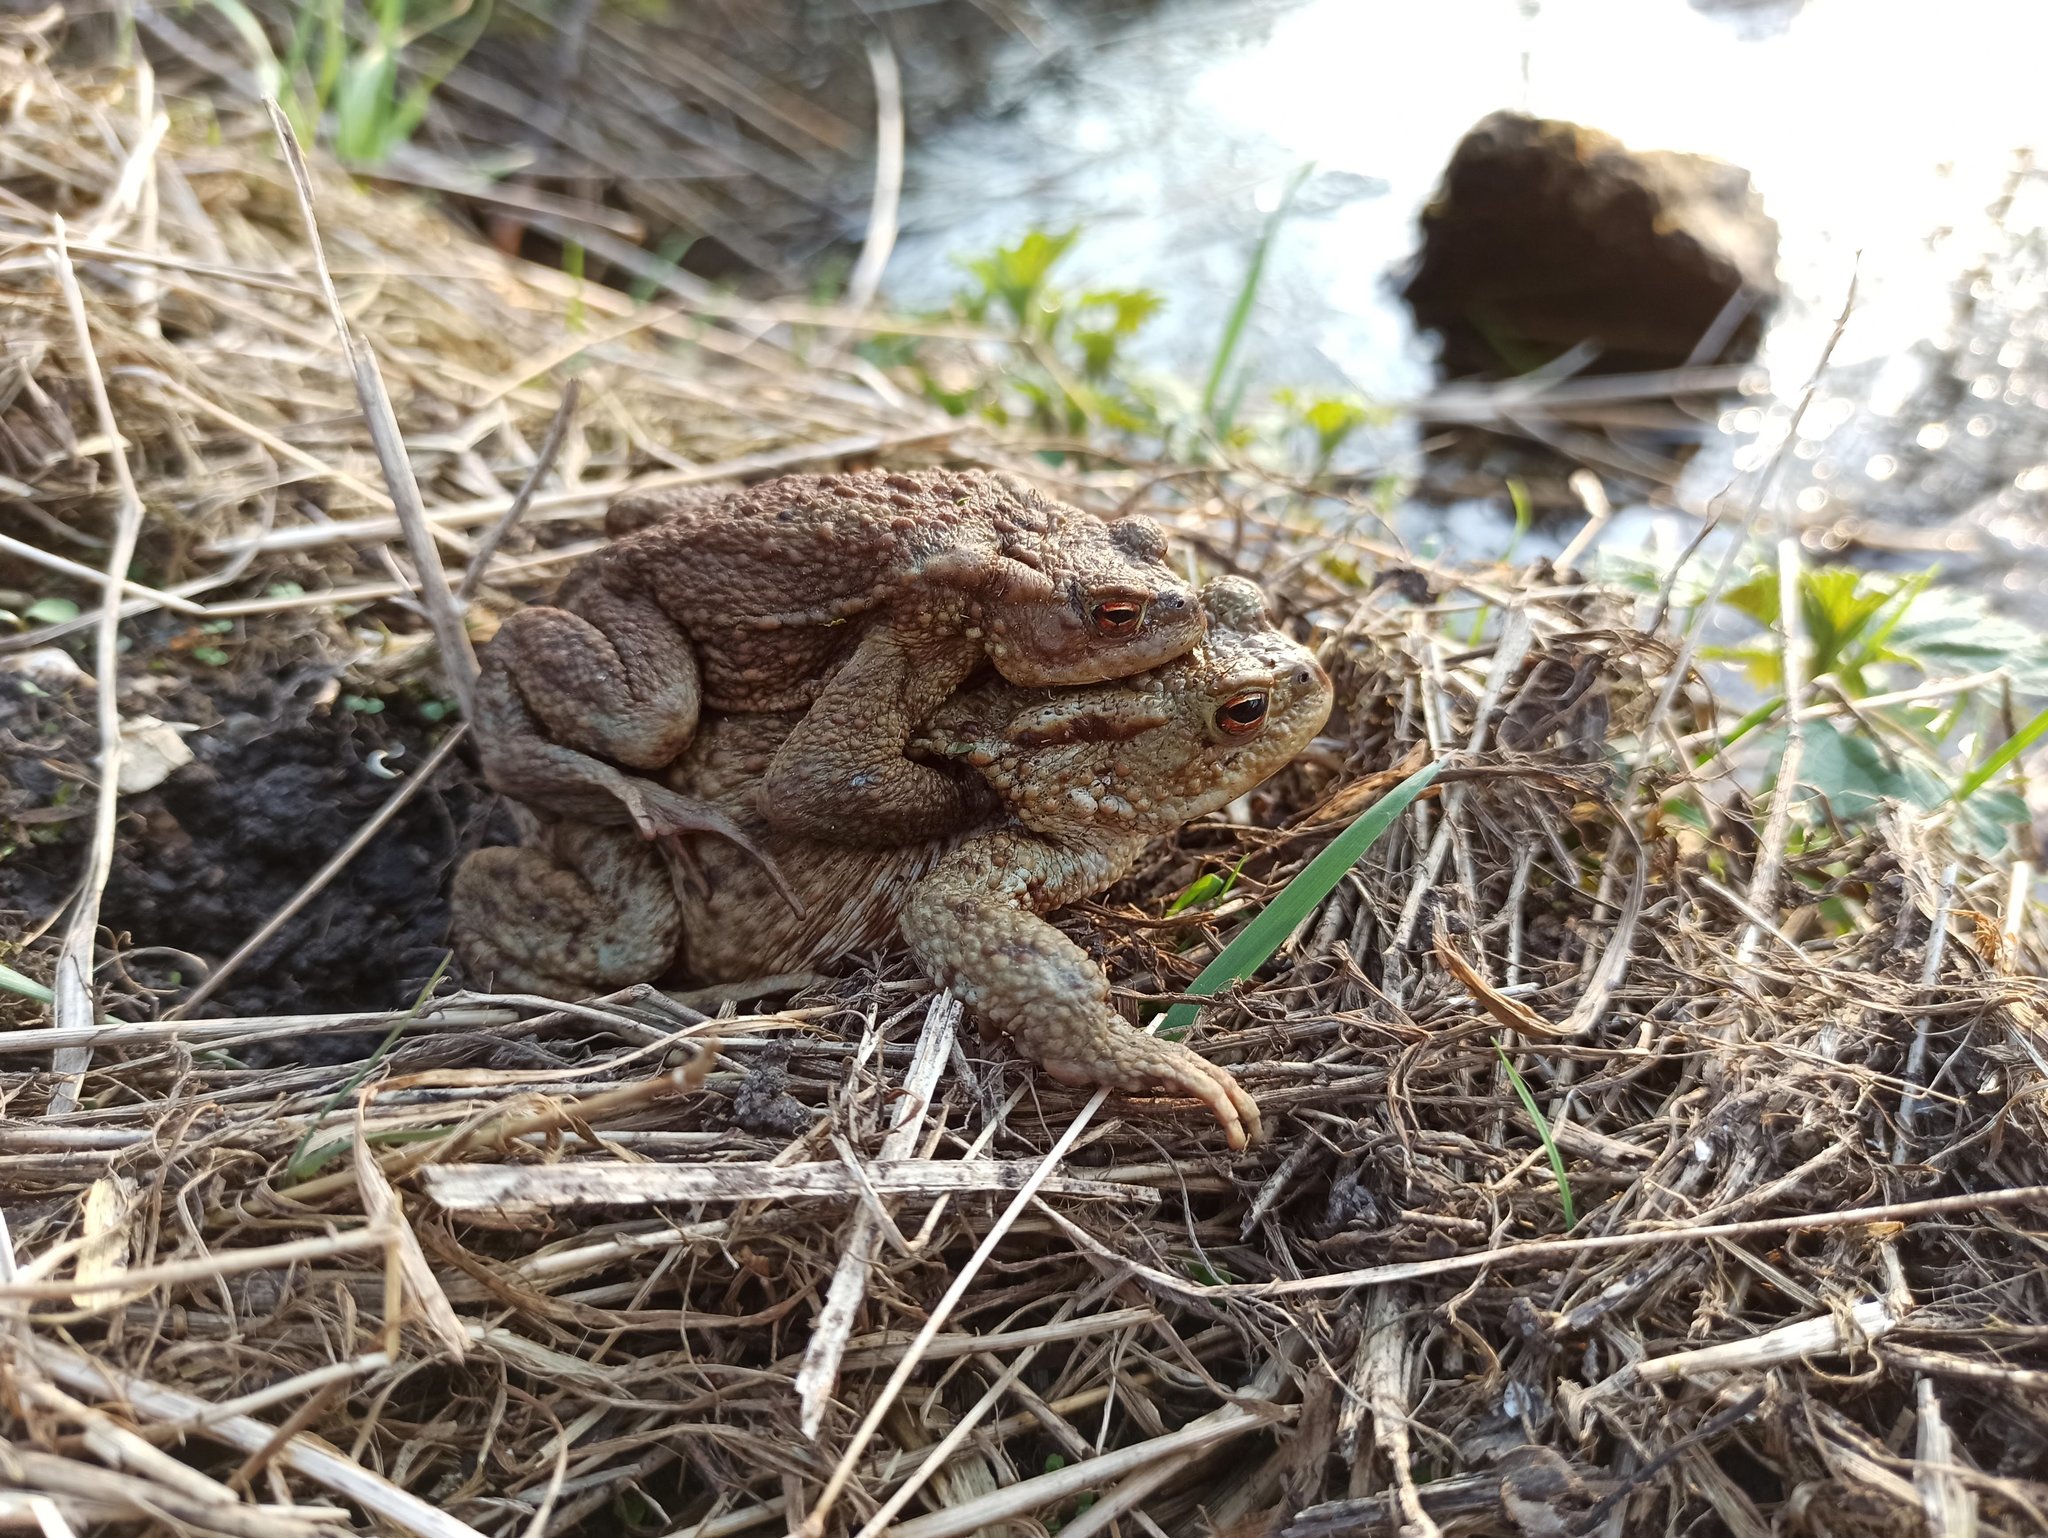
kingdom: Animalia
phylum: Chordata
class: Amphibia
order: Anura
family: Bufonidae
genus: Bufo
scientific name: Bufo bufo
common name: Common toad
